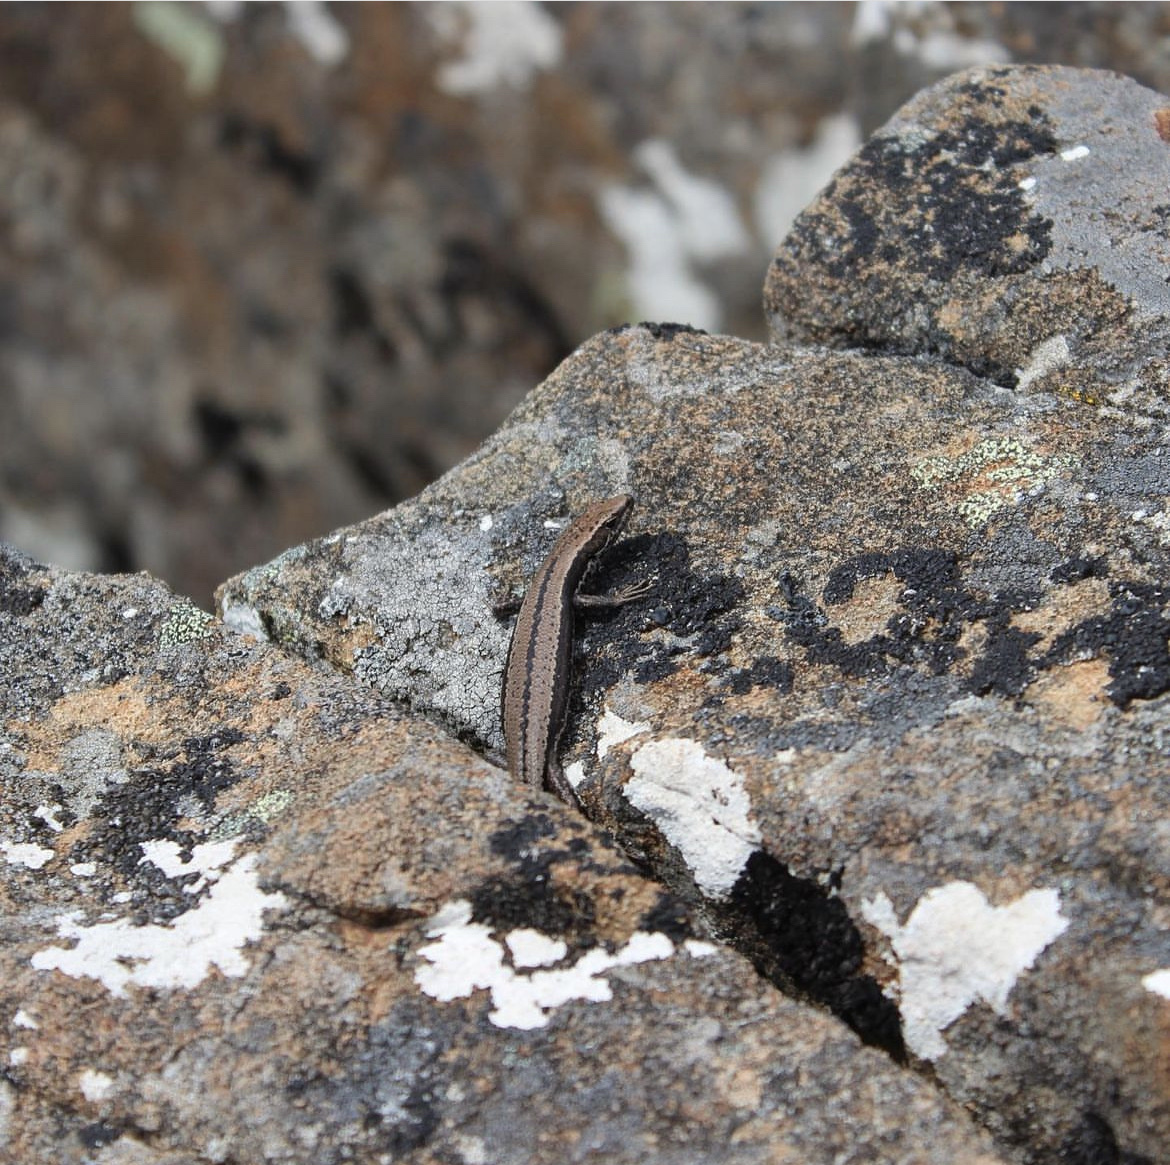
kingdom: Animalia
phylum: Chordata
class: Squamata
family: Scincidae
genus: Carinascincus
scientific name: Carinascincus pretiosus
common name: Agile cool-skink
